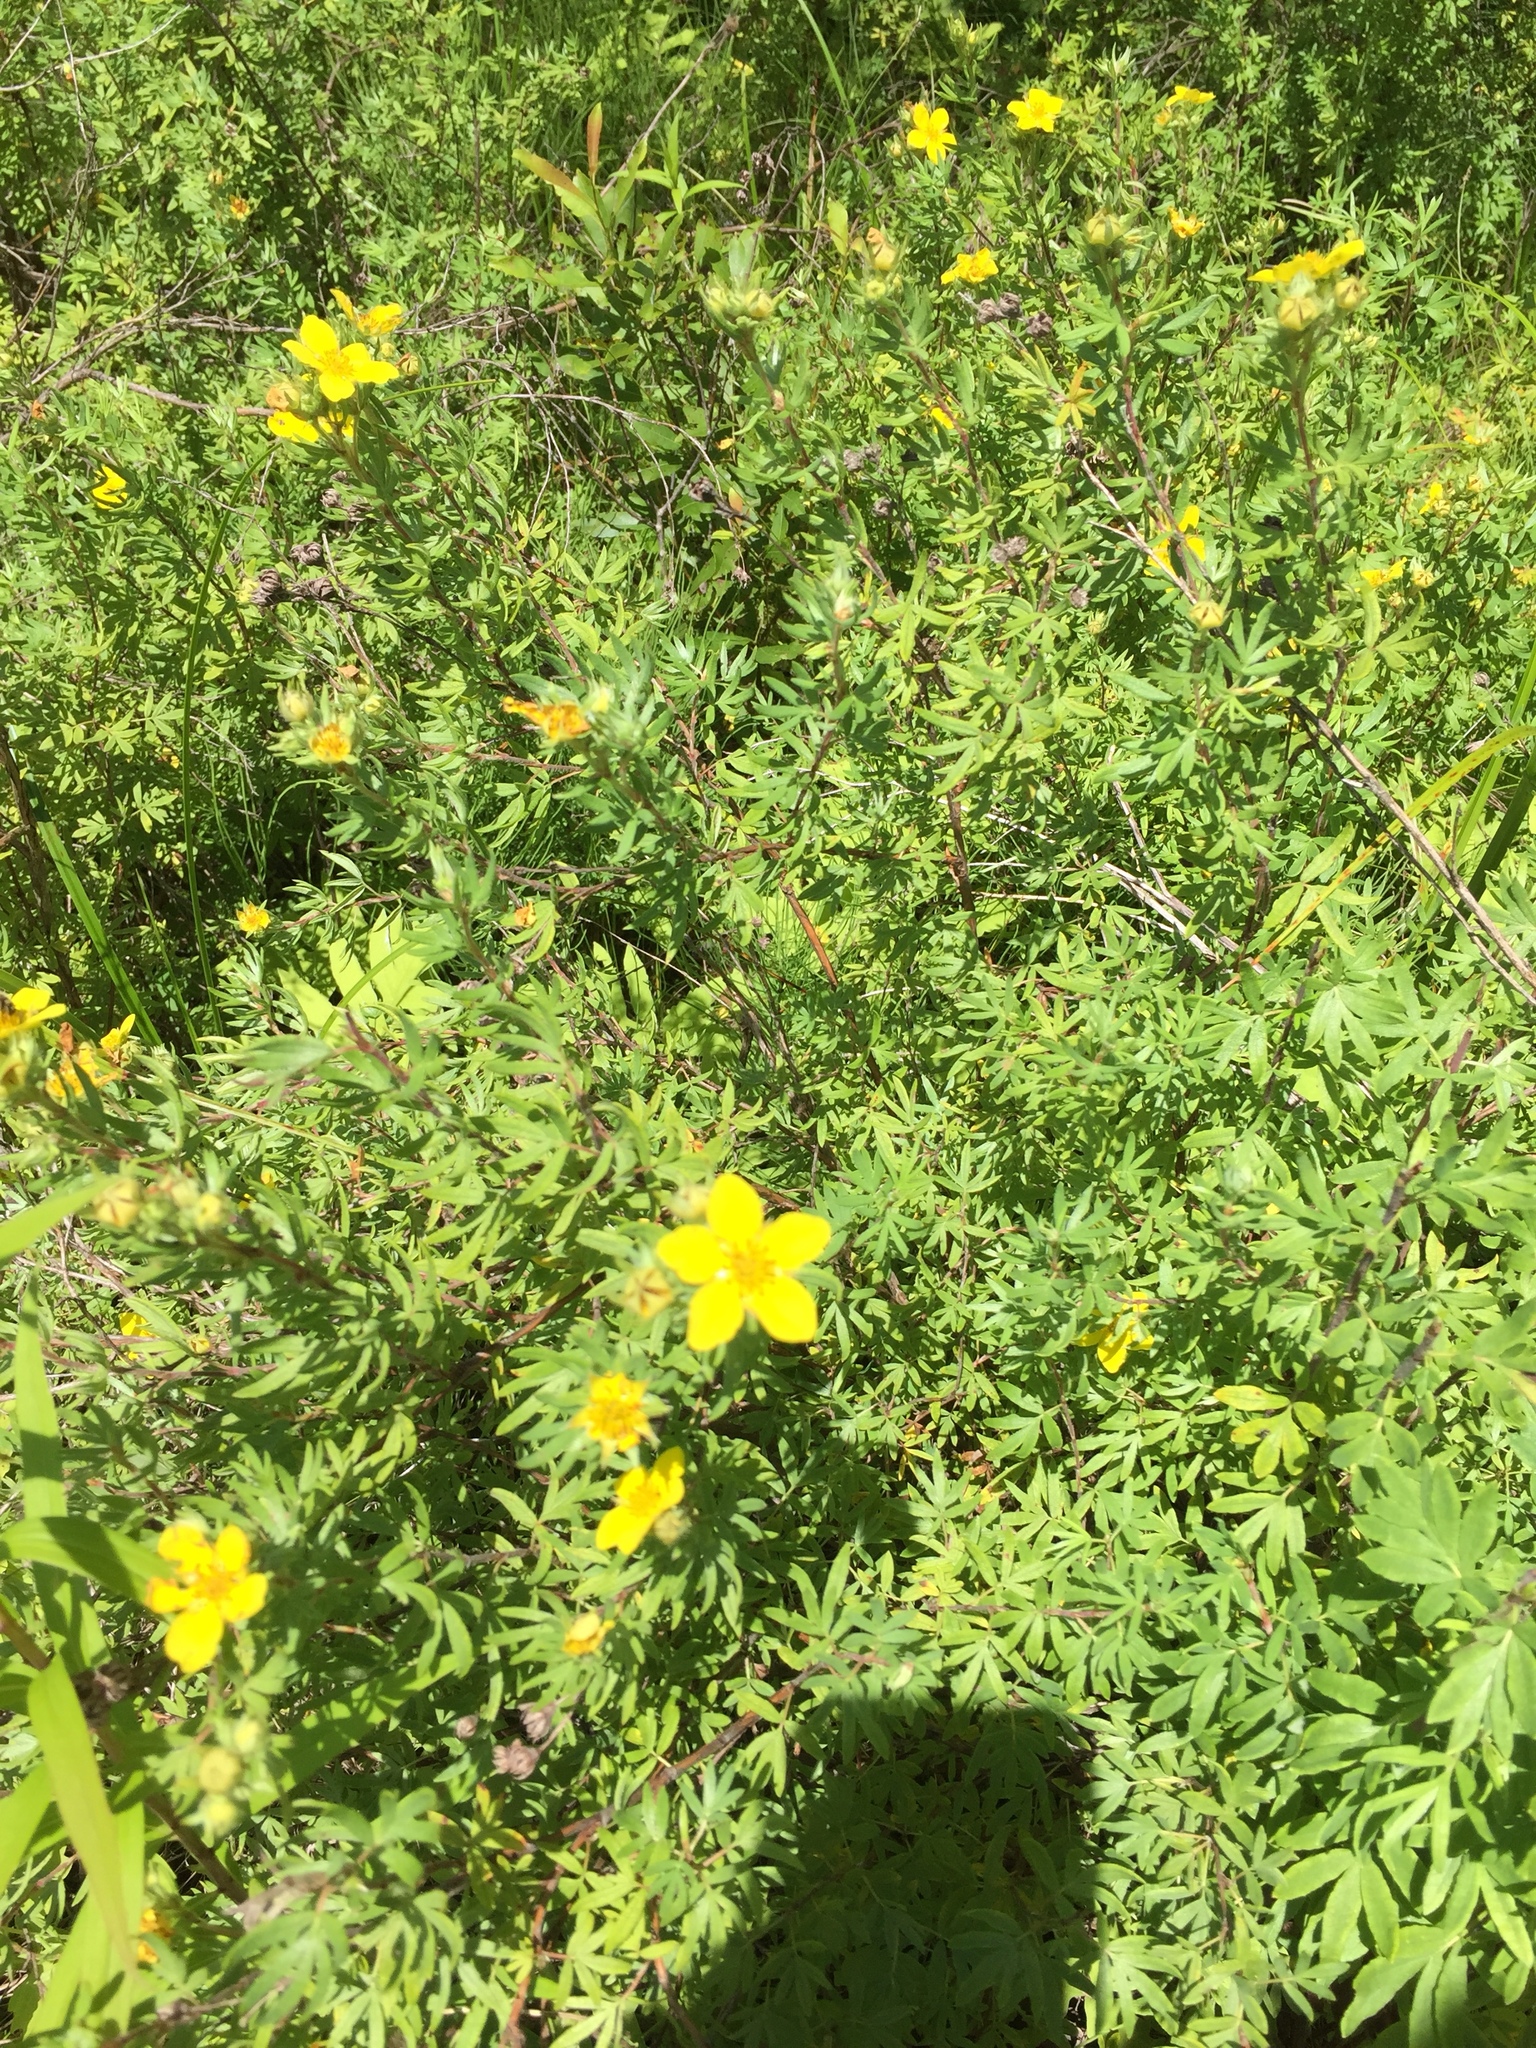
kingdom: Plantae
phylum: Tracheophyta
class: Magnoliopsida
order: Rosales
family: Rosaceae
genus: Dasiphora
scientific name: Dasiphora fruticosa
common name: Shrubby cinquefoil
